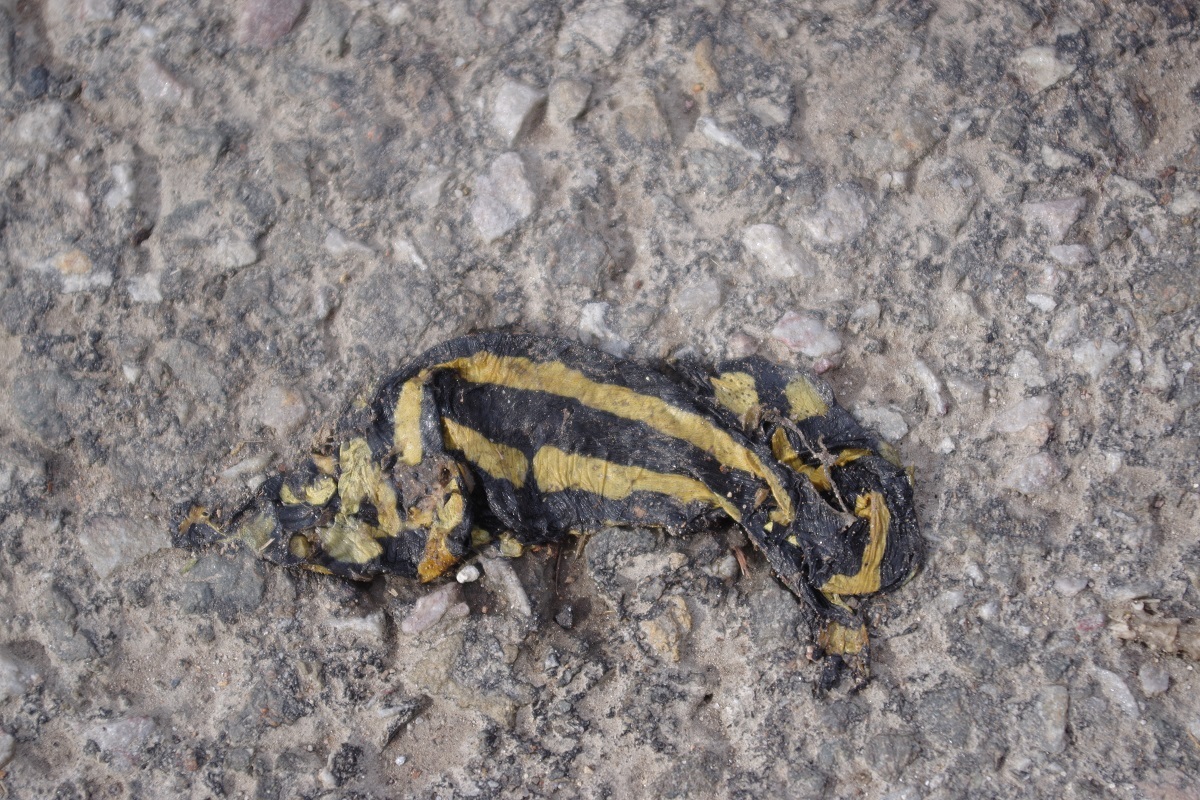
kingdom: Animalia
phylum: Chordata
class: Amphibia
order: Caudata
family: Salamandridae
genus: Salamandra
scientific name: Salamandra salamandra
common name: Fire salamander
